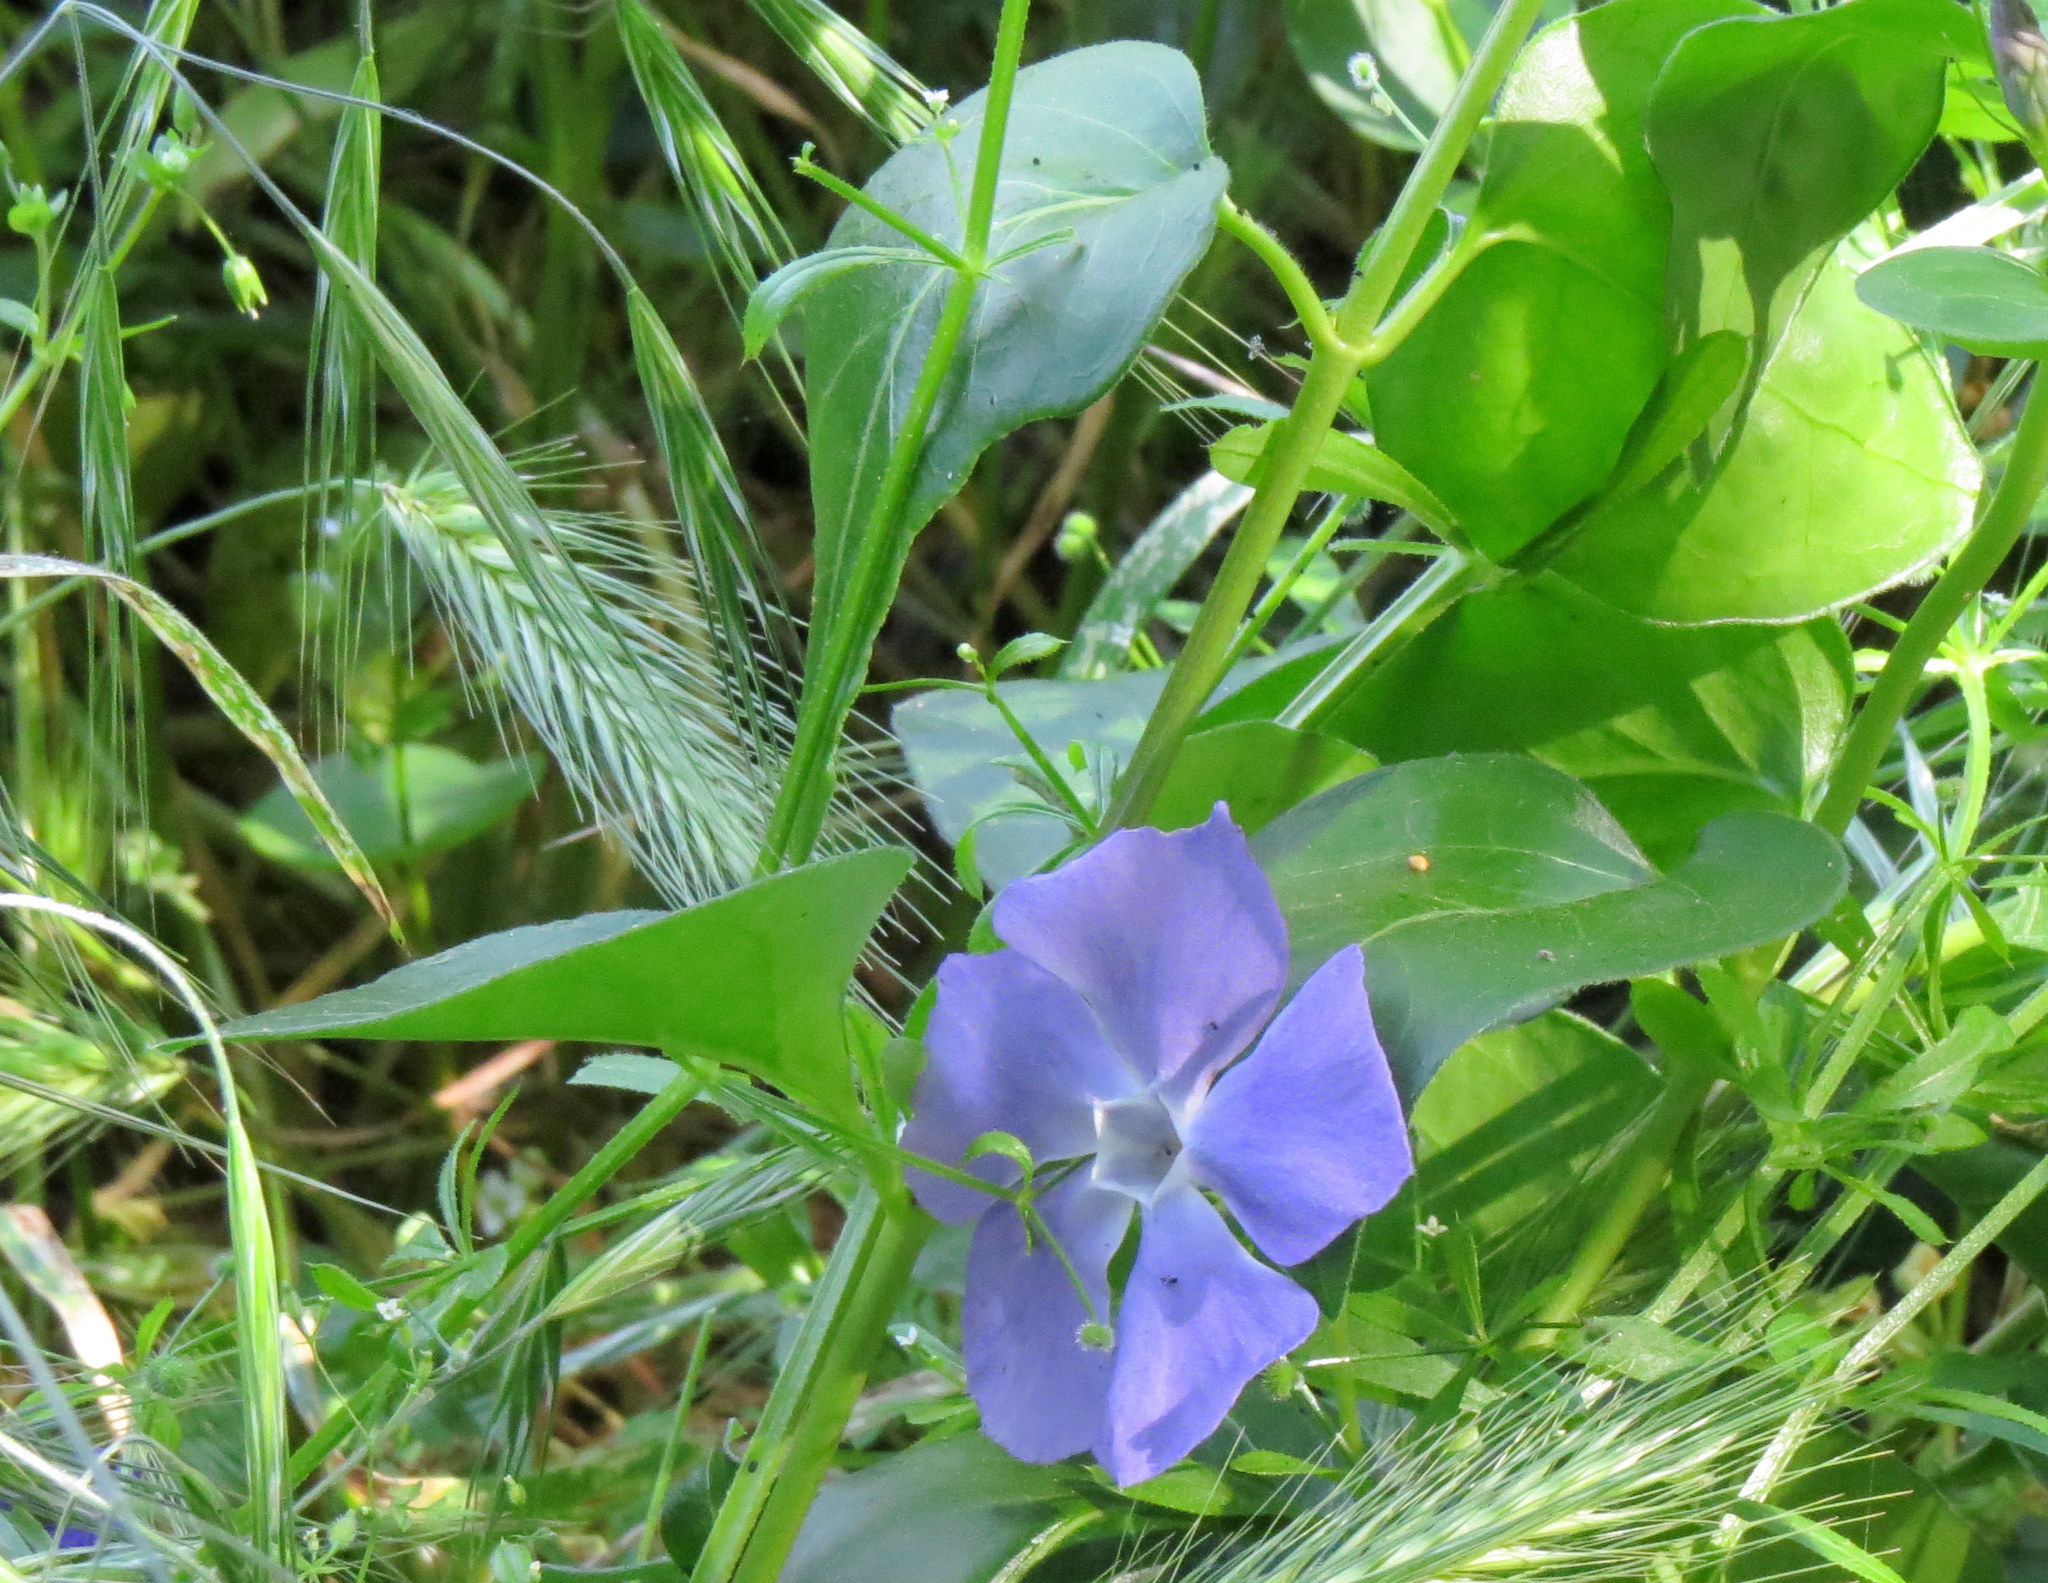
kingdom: Plantae
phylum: Tracheophyta
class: Magnoliopsida
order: Gentianales
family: Apocynaceae
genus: Vinca
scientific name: Vinca major
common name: Greater periwinkle
